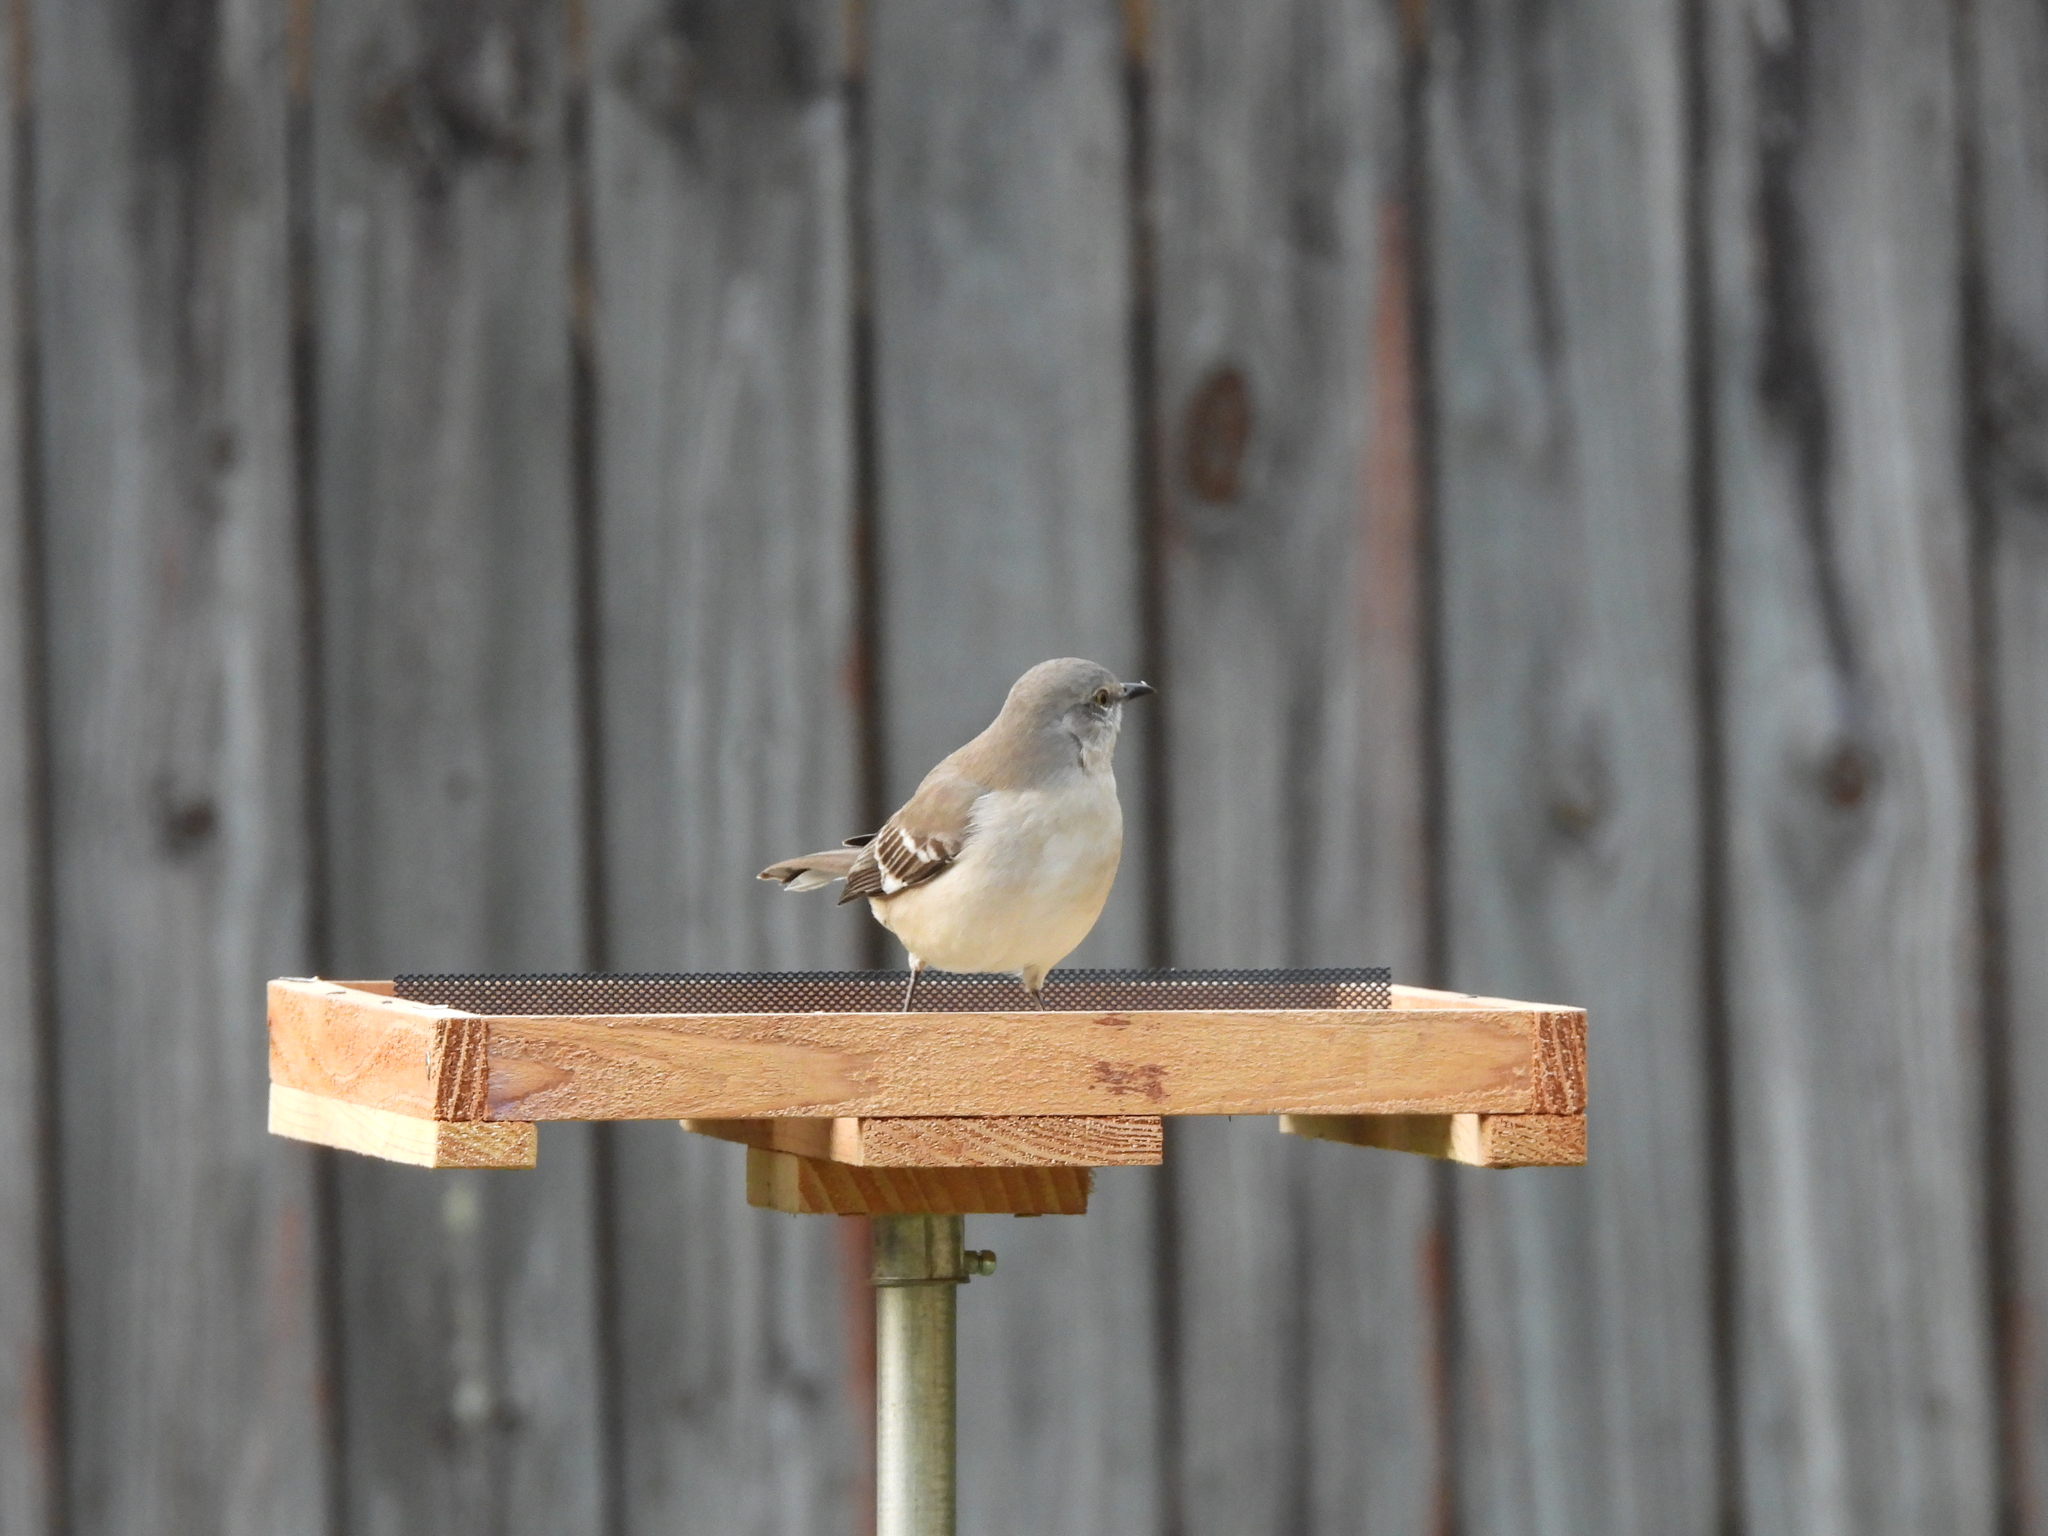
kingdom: Animalia
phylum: Chordata
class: Aves
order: Passeriformes
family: Mimidae
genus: Mimus
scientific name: Mimus polyglottos
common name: Northern mockingbird
